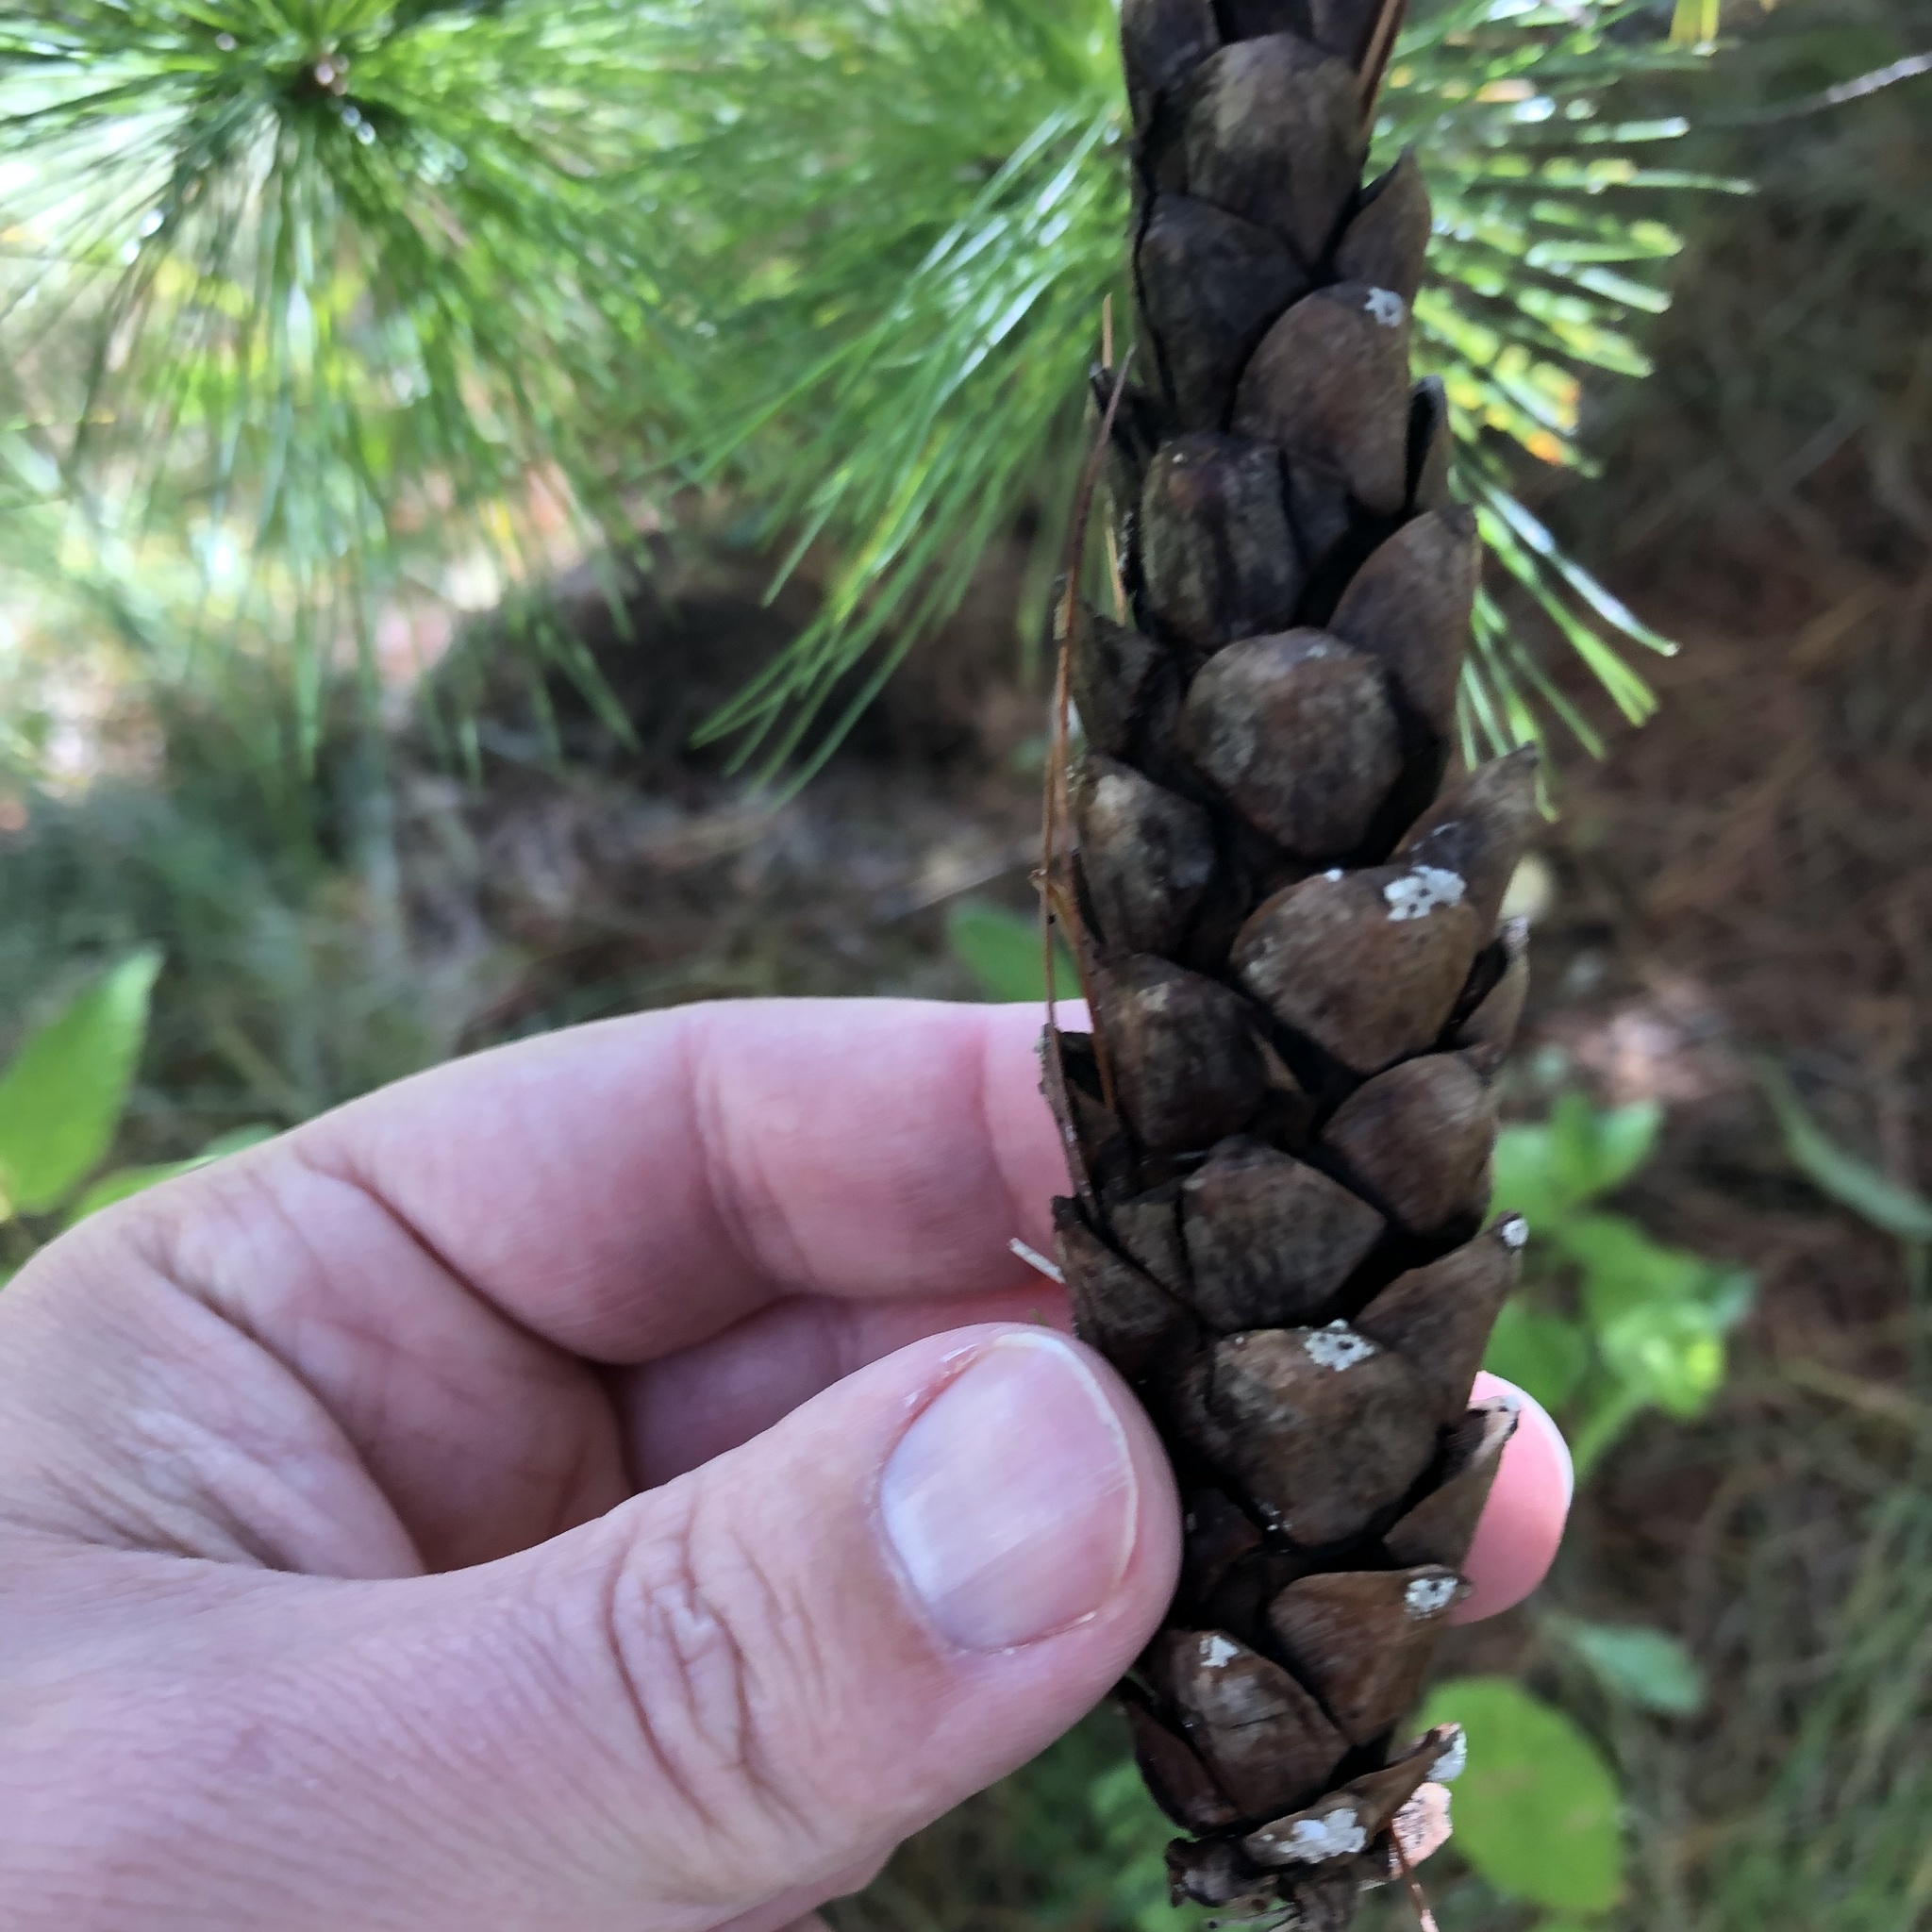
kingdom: Plantae
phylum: Tracheophyta
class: Pinopsida
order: Pinales
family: Pinaceae
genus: Pinus
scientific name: Pinus strobus
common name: Weymouth pine
